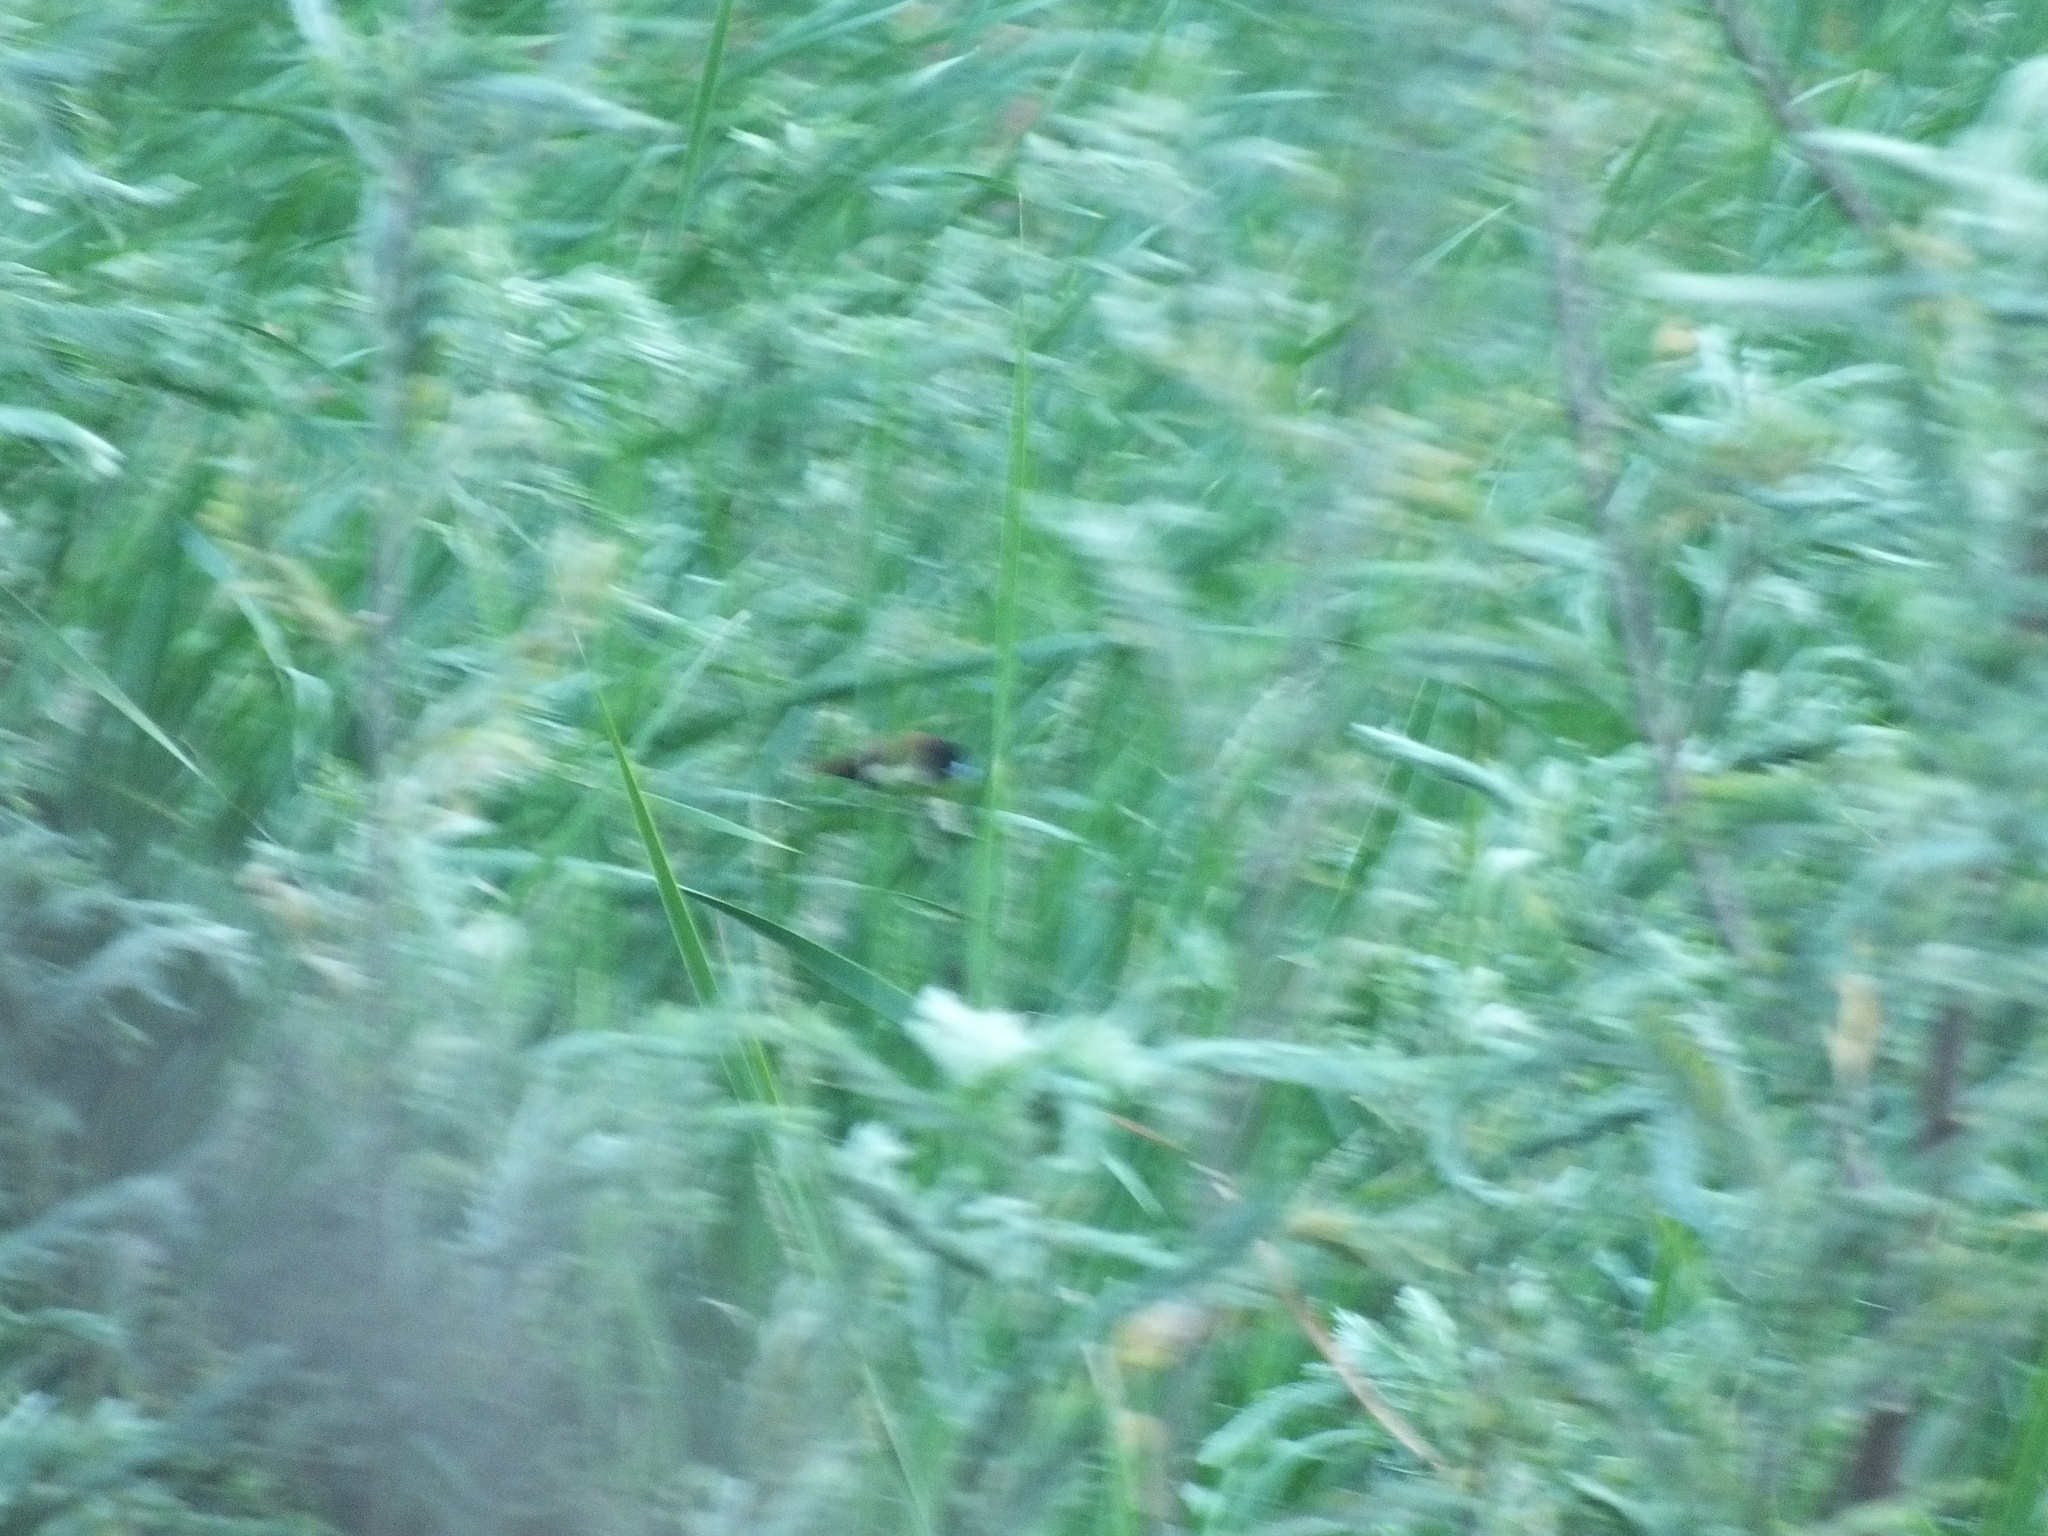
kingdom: Animalia
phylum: Chordata
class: Aves
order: Passeriformes
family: Estrildidae
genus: Lonchura
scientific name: Lonchura malacca
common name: Tricolored munia
